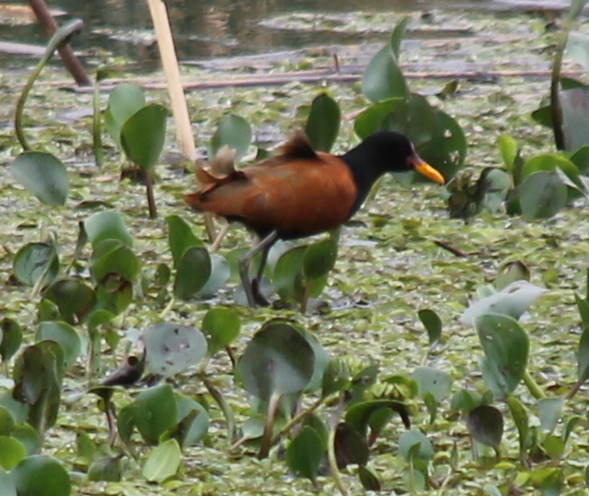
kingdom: Animalia
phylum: Chordata
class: Aves
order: Charadriiformes
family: Jacanidae
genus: Jacana
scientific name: Jacana jacana
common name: Wattled jacana
